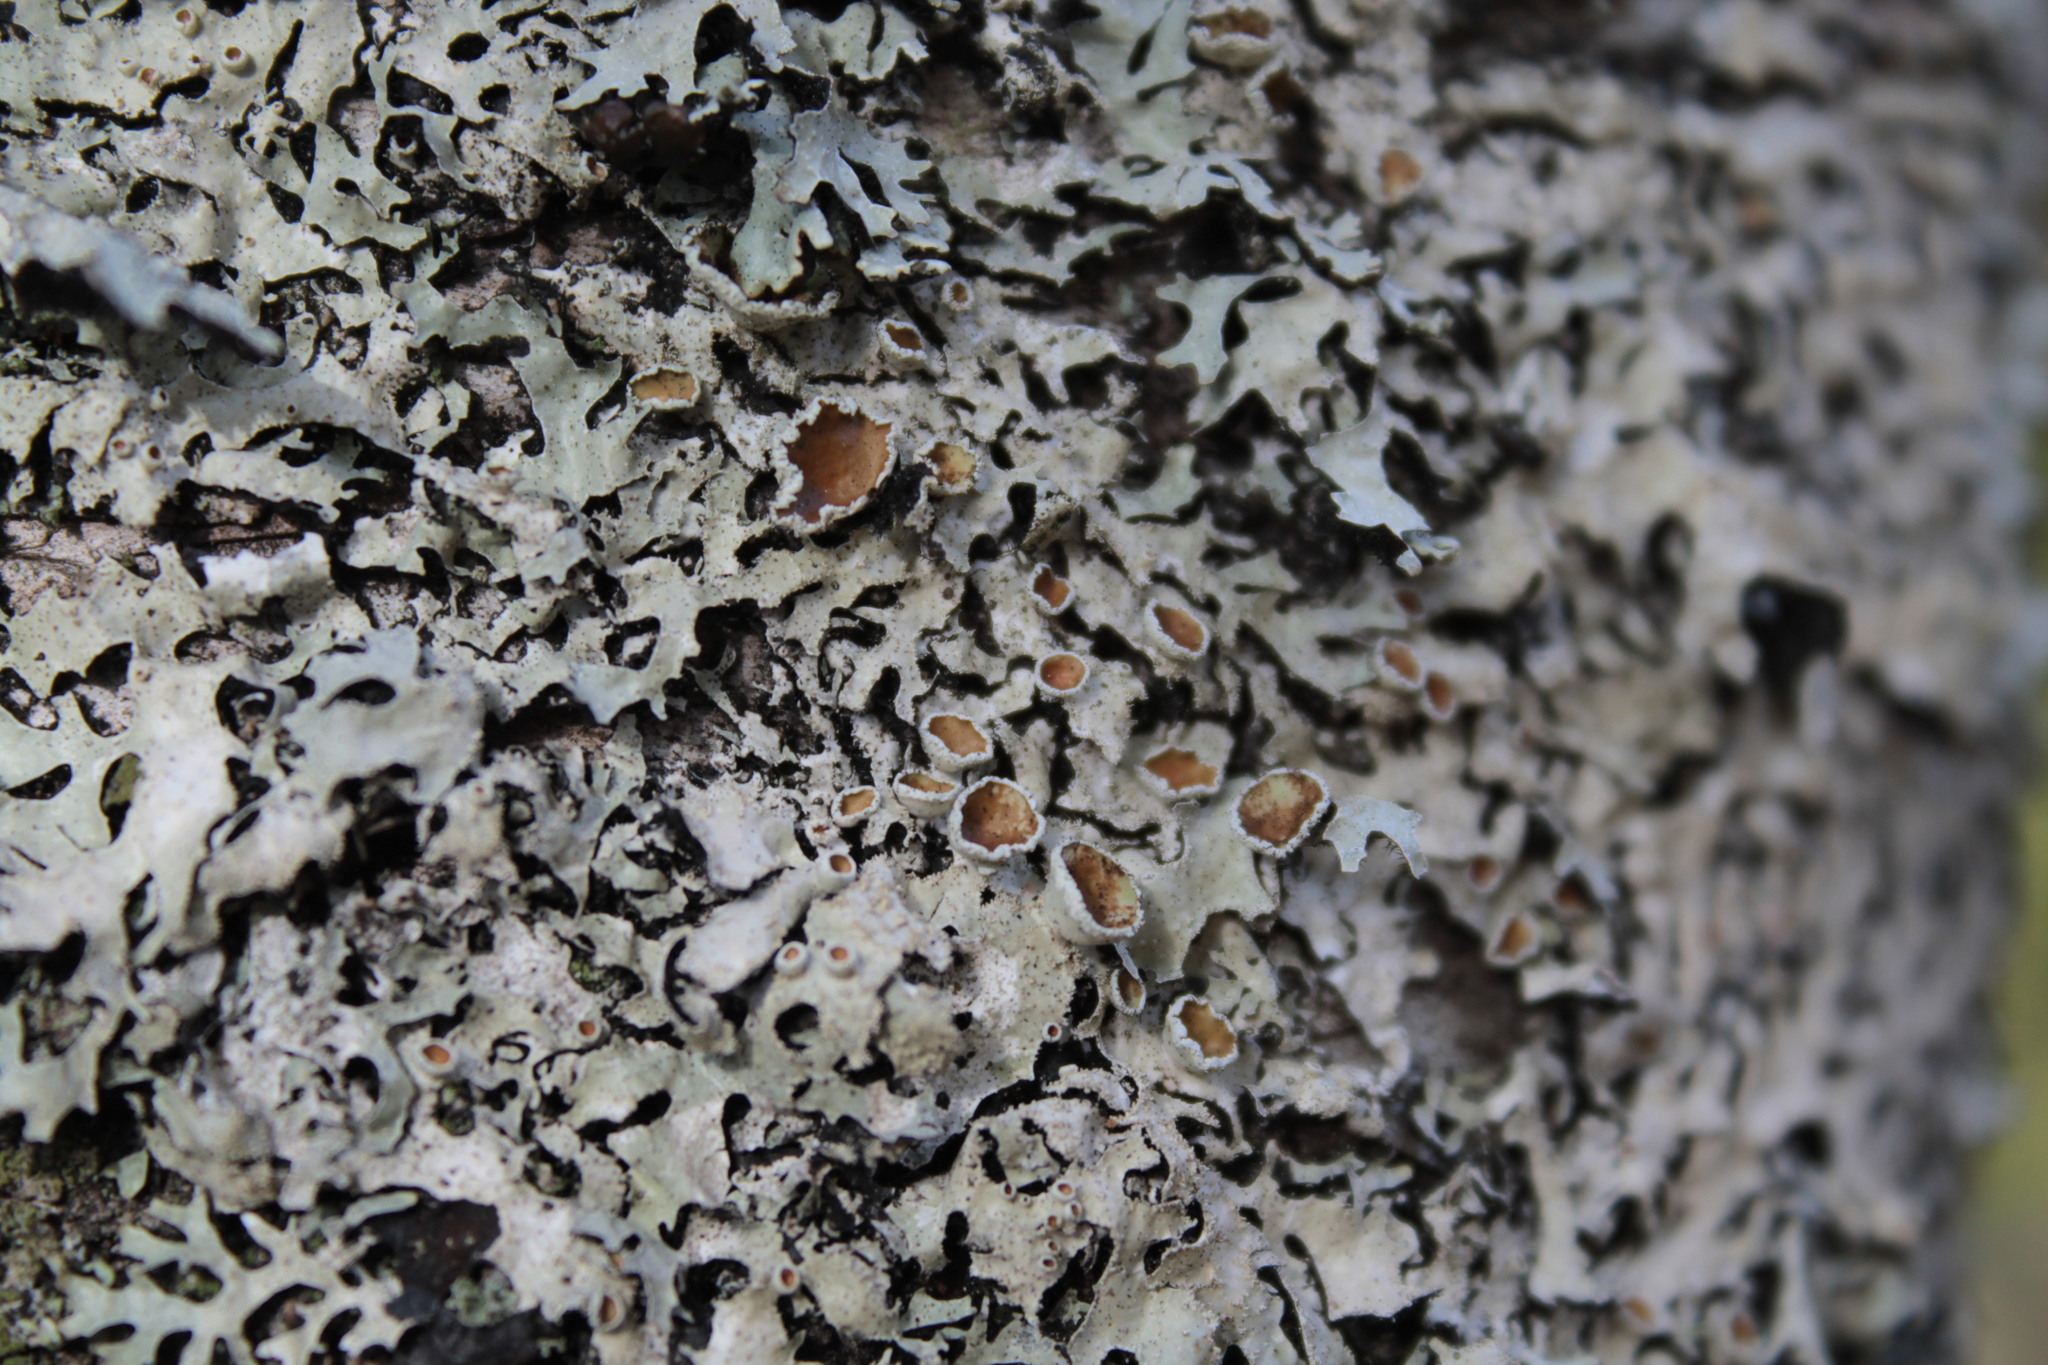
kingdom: Fungi
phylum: Ascomycota
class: Lecanoromycetes
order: Lecanorales
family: Parmeliaceae
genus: Parmelia
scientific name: Parmelia squarrosa
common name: Bottle brush shield lichen
